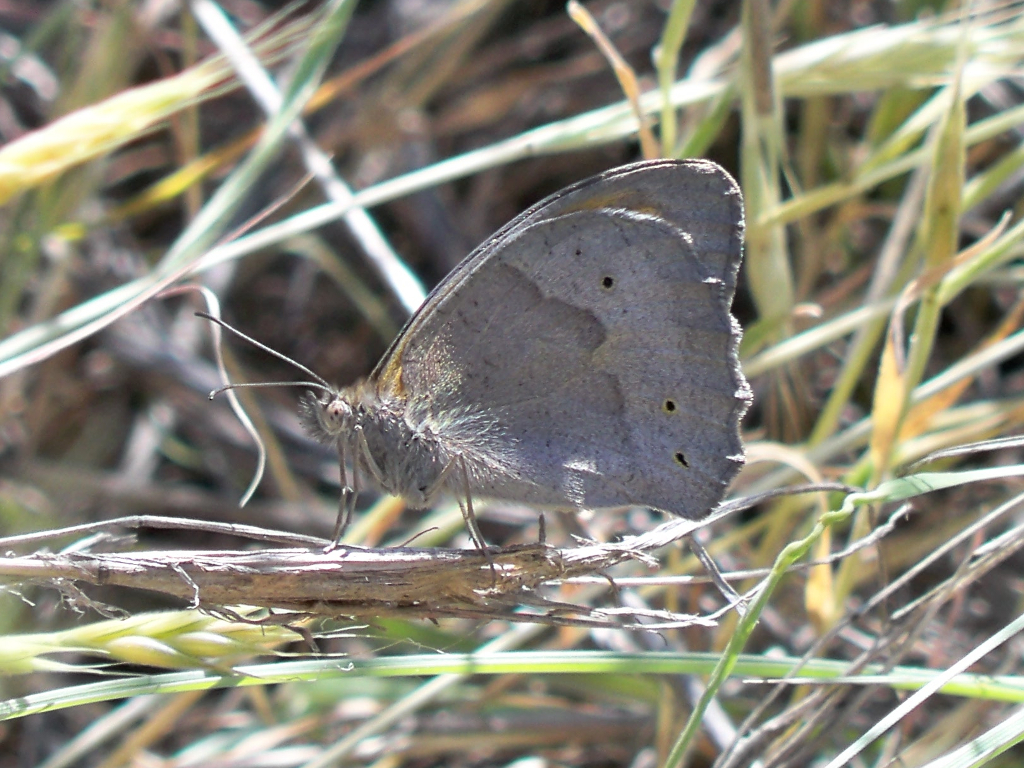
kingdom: Animalia
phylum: Arthropoda
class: Insecta
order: Lepidoptera
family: Nymphalidae
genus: Maniola
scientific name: Maniola jurtina
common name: Meadow brown
